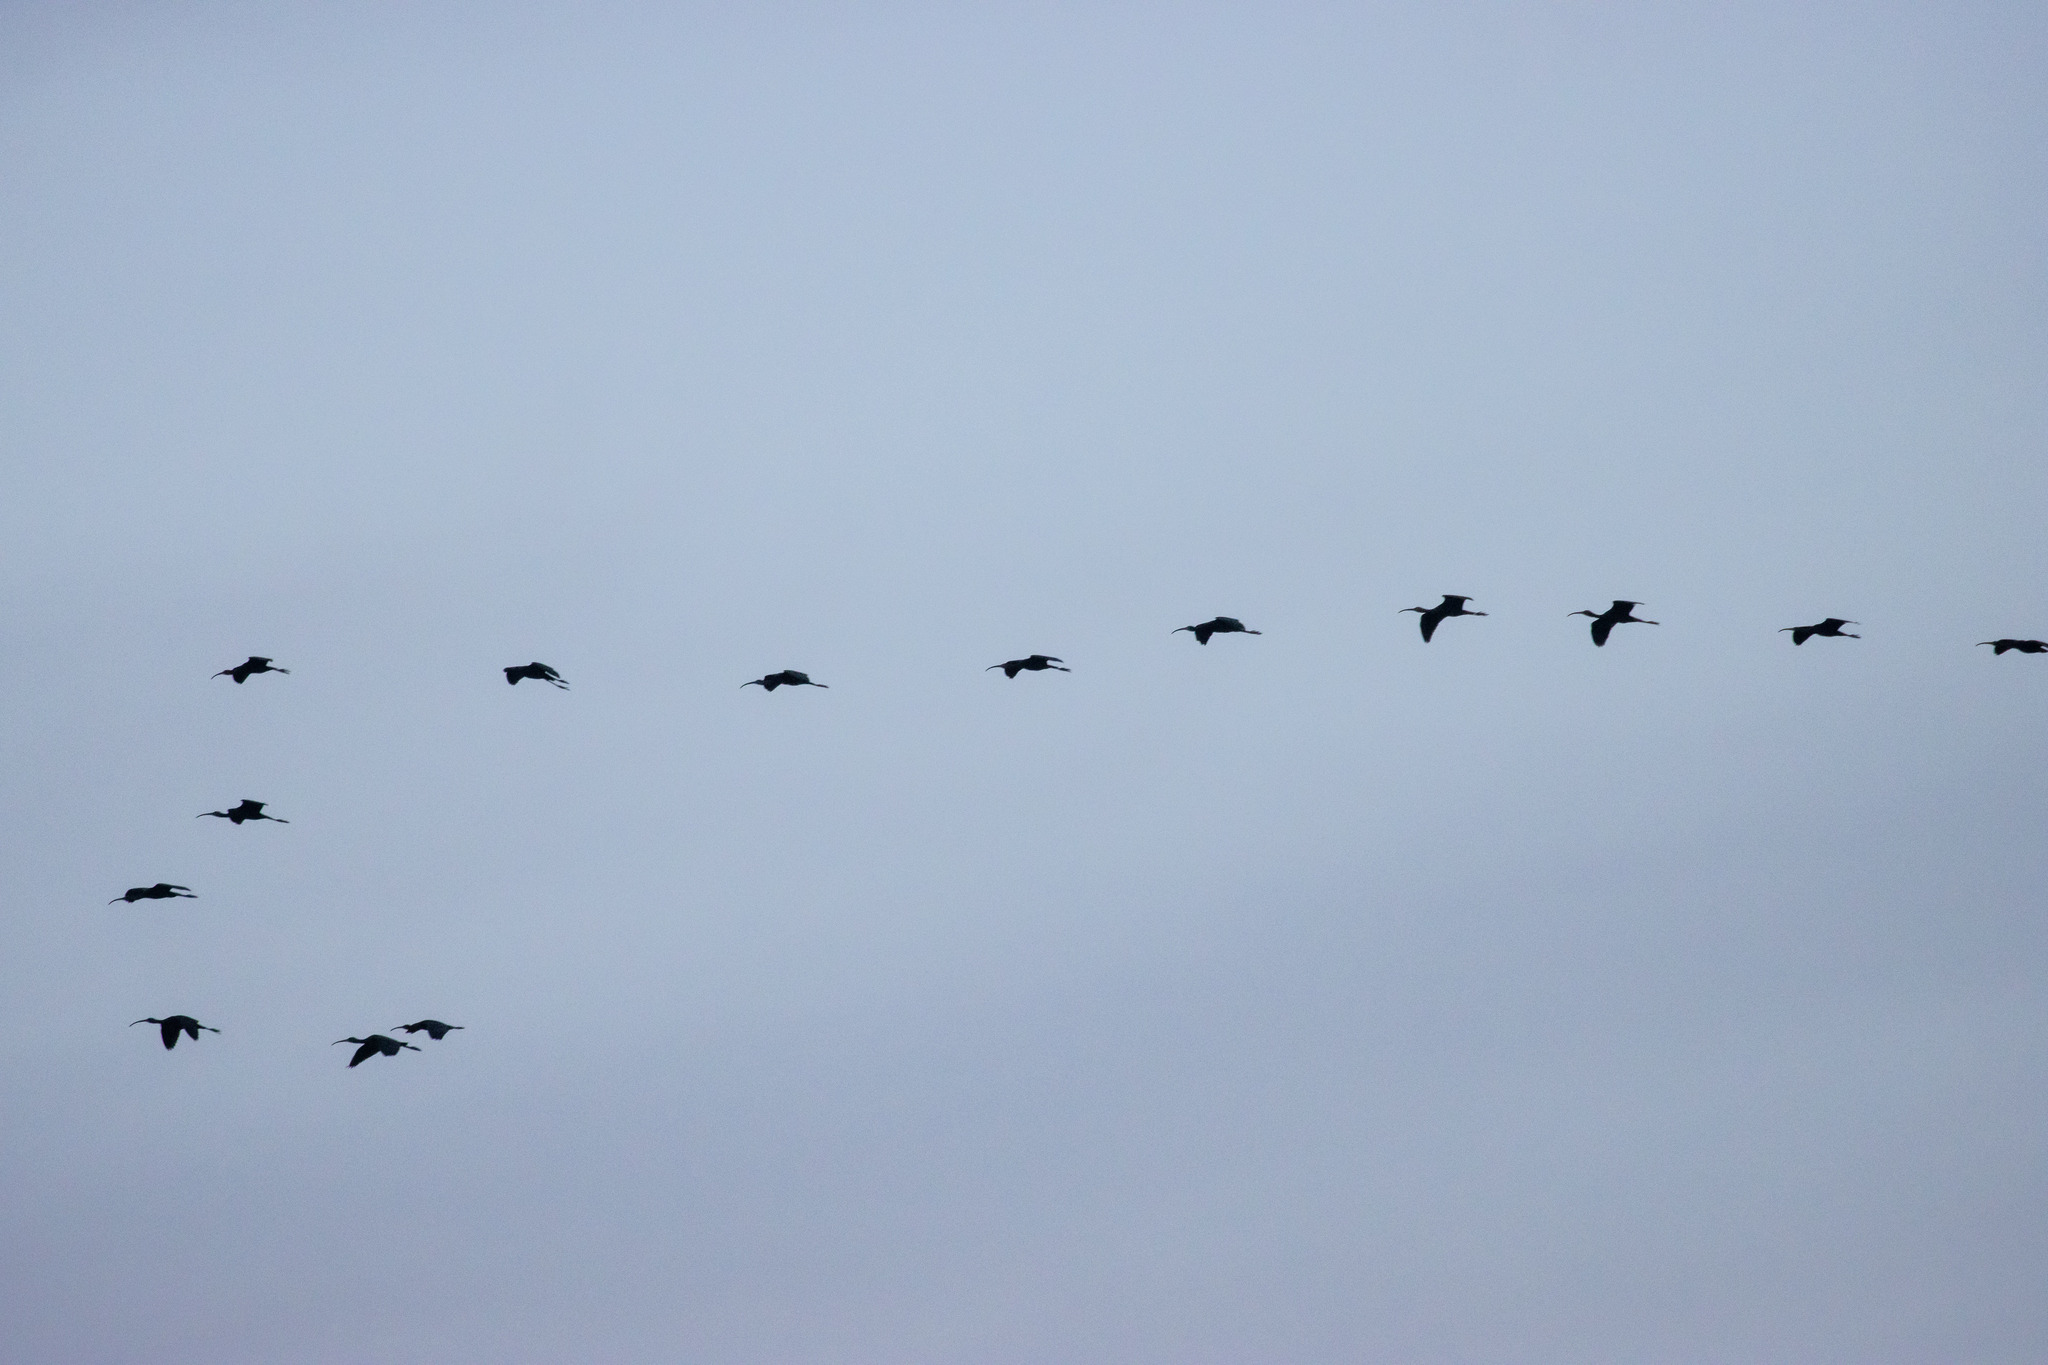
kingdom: Animalia
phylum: Chordata
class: Aves
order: Pelecaniformes
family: Threskiornithidae
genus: Plegadis
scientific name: Plegadis falcinellus
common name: Glossy ibis
